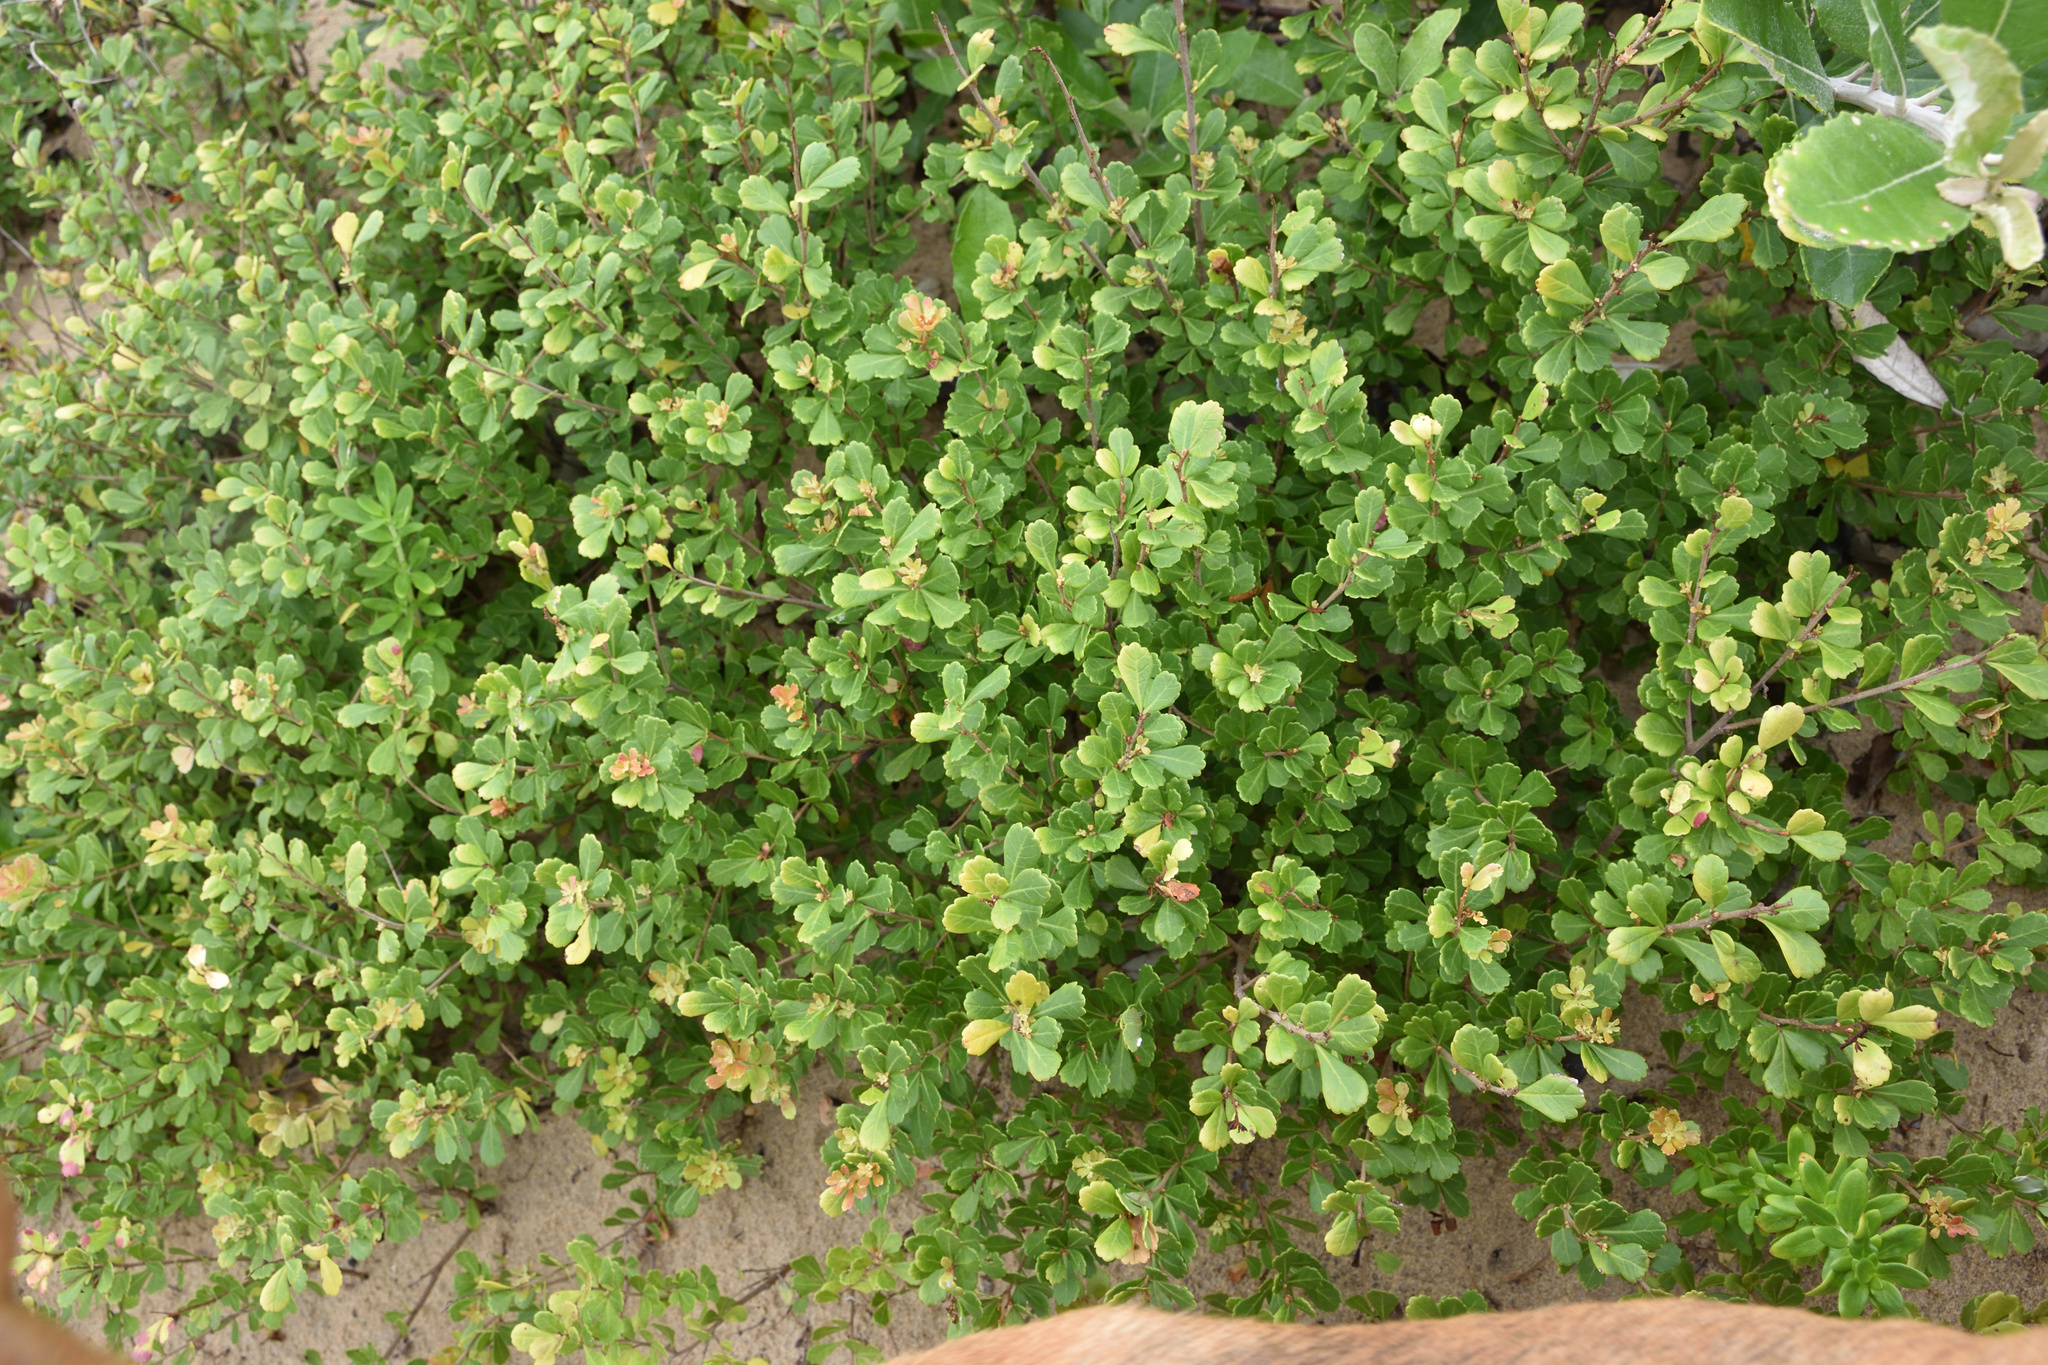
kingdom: Plantae
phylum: Tracheophyta
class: Magnoliopsida
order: Sapindales
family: Anacardiaceae
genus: Searsia
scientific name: Searsia crenata
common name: Crowberry
